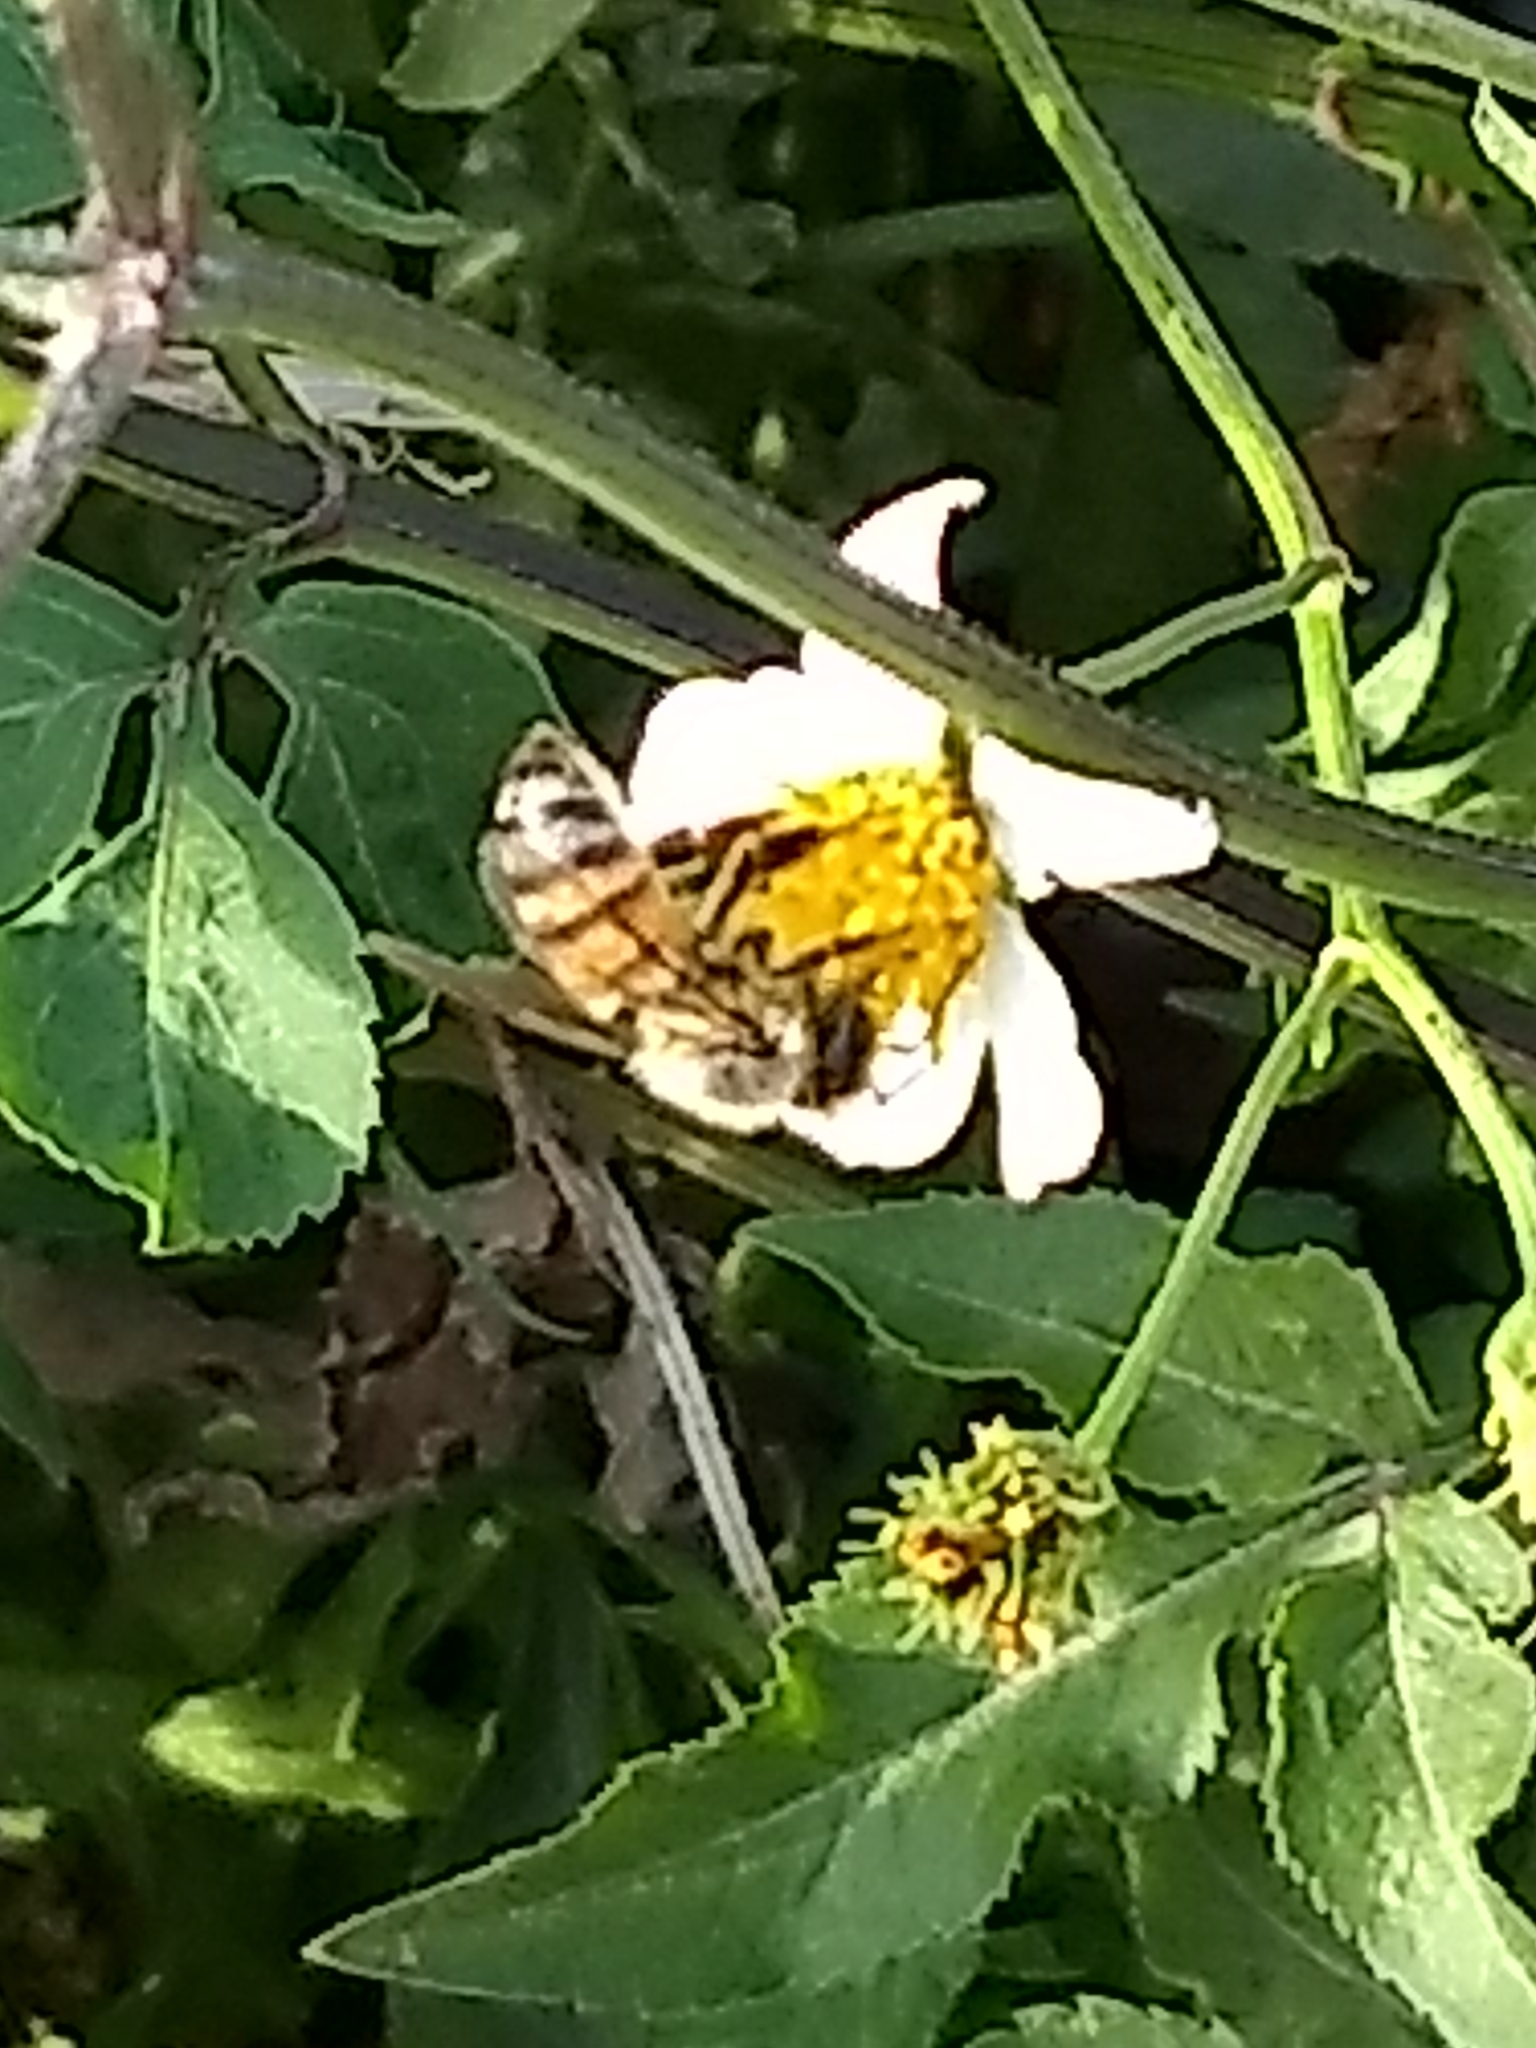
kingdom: Animalia
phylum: Arthropoda
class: Insecta
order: Hymenoptera
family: Apidae
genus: Apis
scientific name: Apis mellifera
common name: Honey bee
